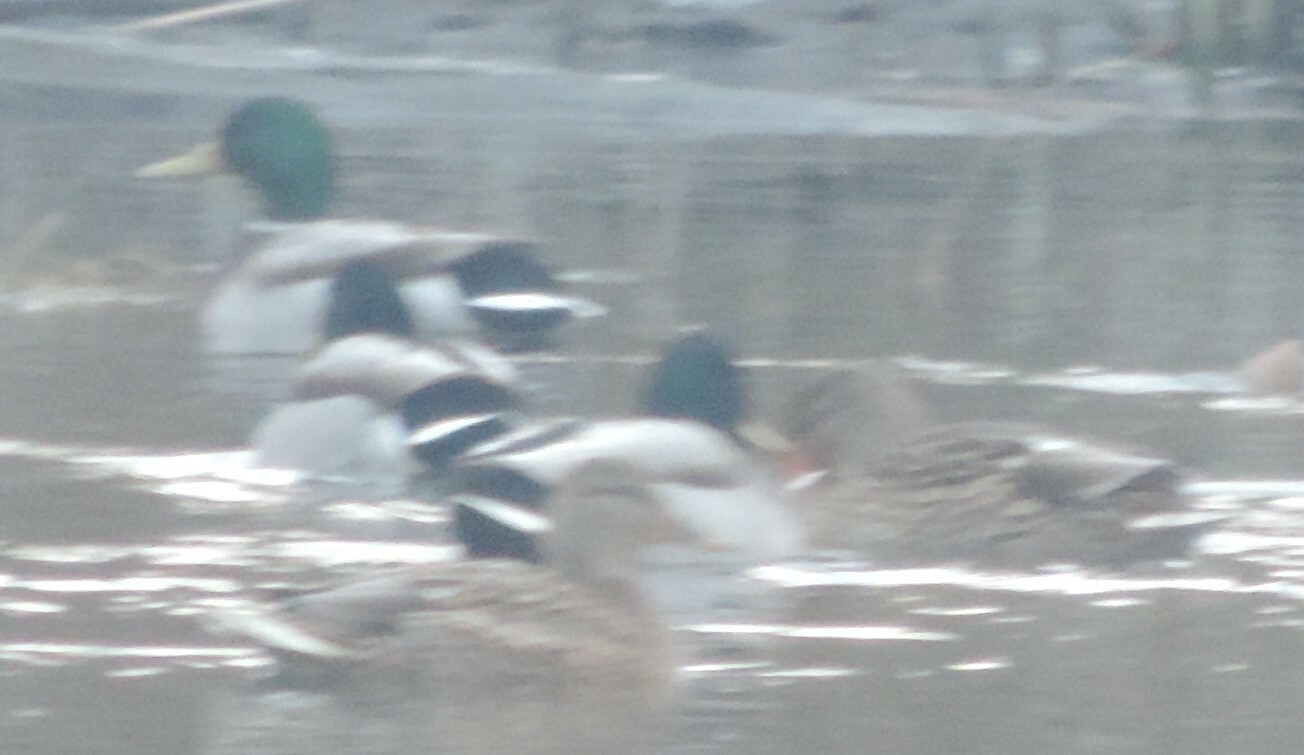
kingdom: Animalia
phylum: Chordata
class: Aves
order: Anseriformes
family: Anatidae
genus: Anas
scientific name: Anas platyrhynchos
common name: Mallard
